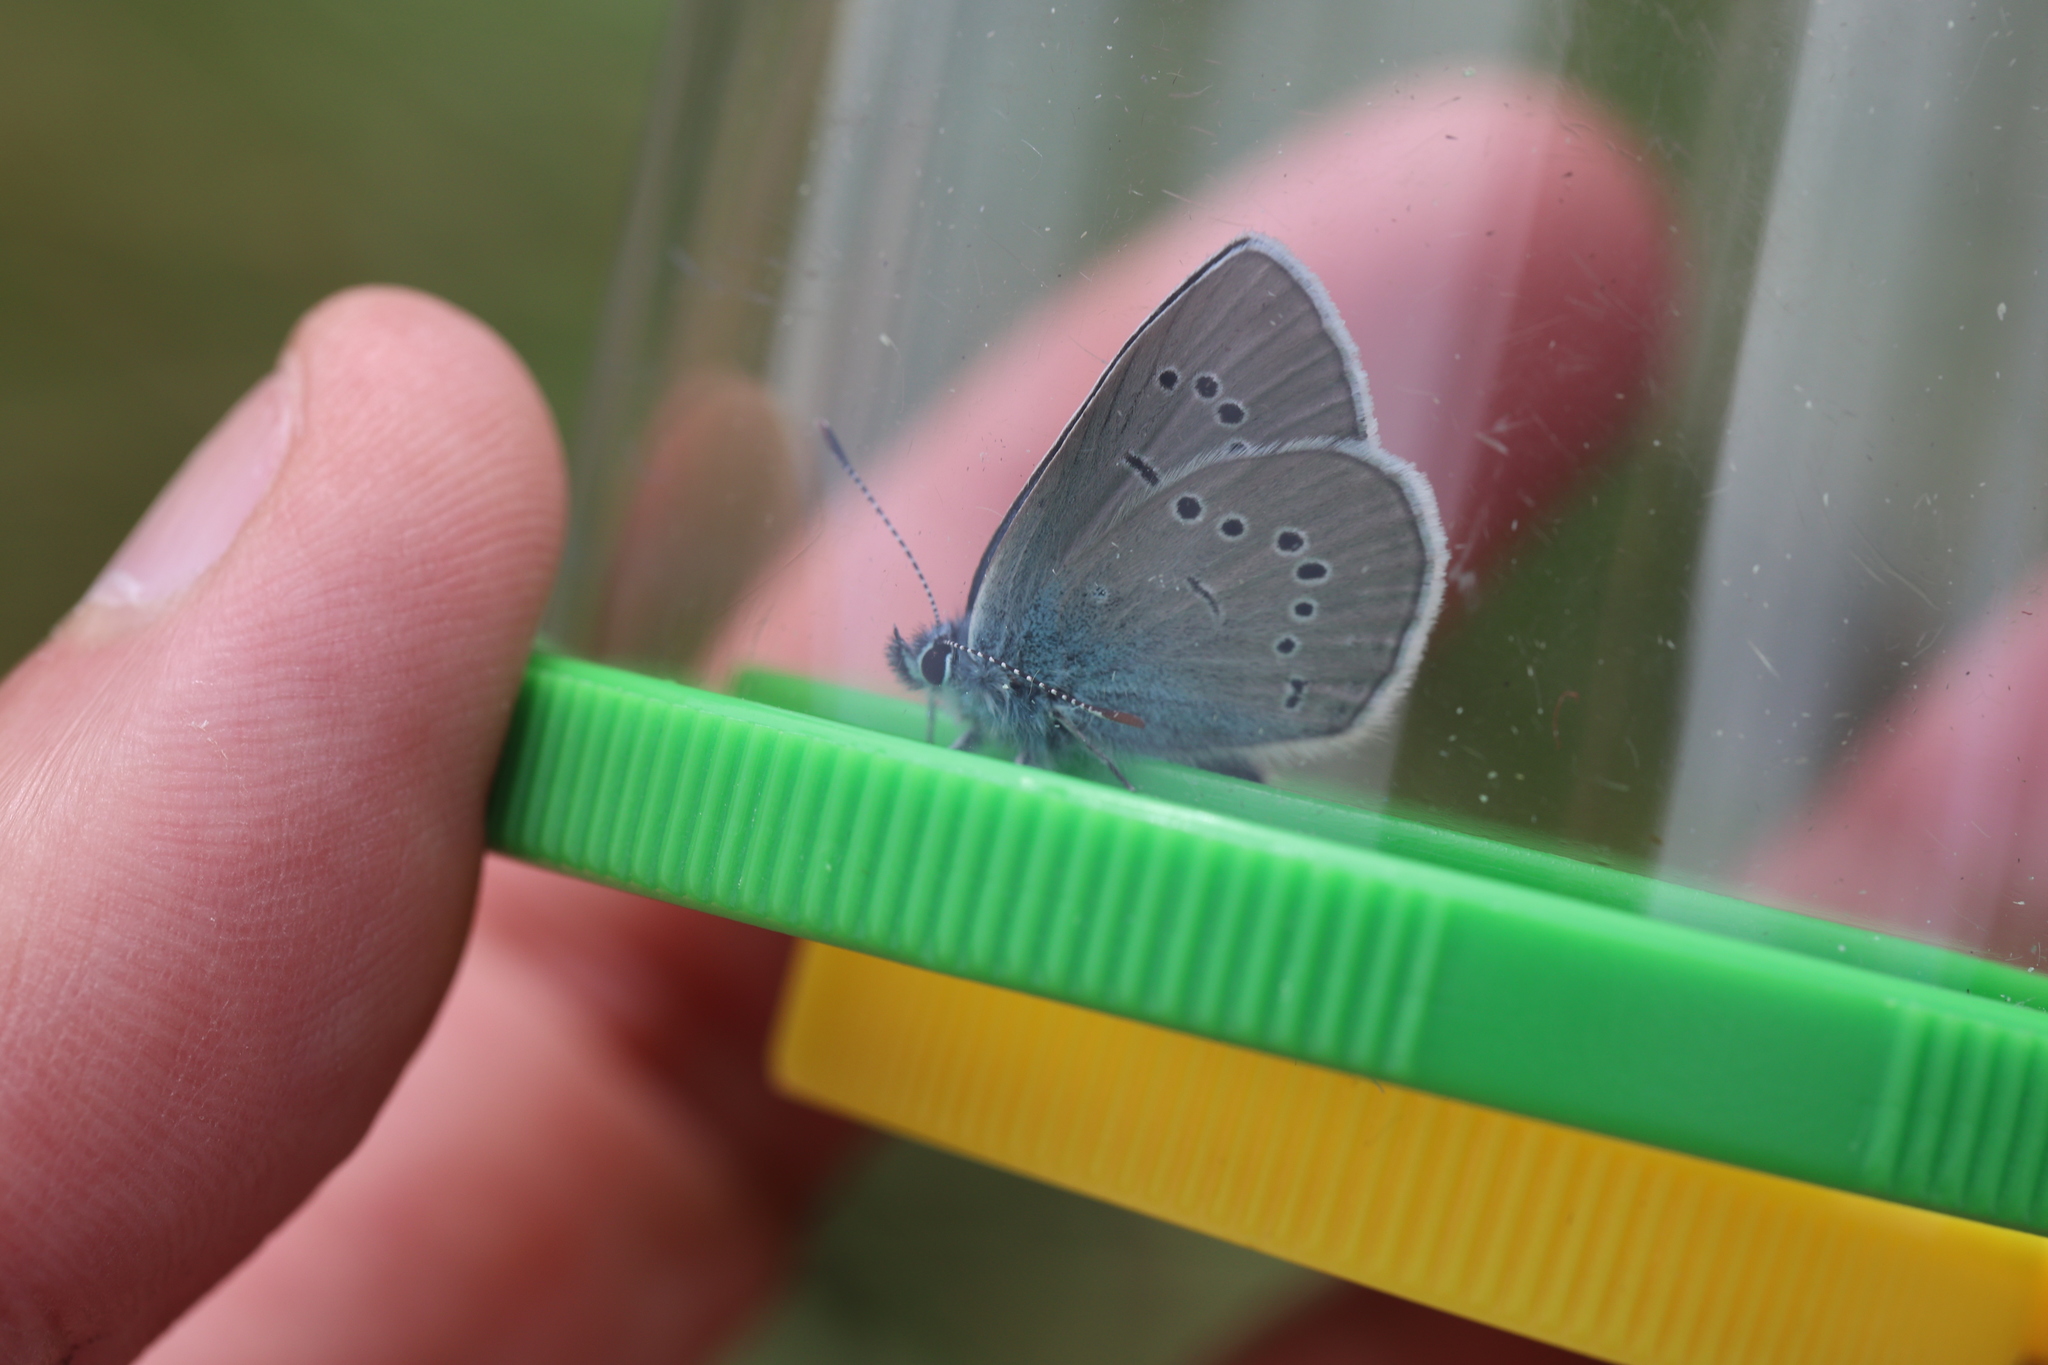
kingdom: Animalia
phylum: Arthropoda
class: Insecta
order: Lepidoptera
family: Lycaenidae
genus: Cyaniris
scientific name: Cyaniris semiargus
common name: Mazarine blue
